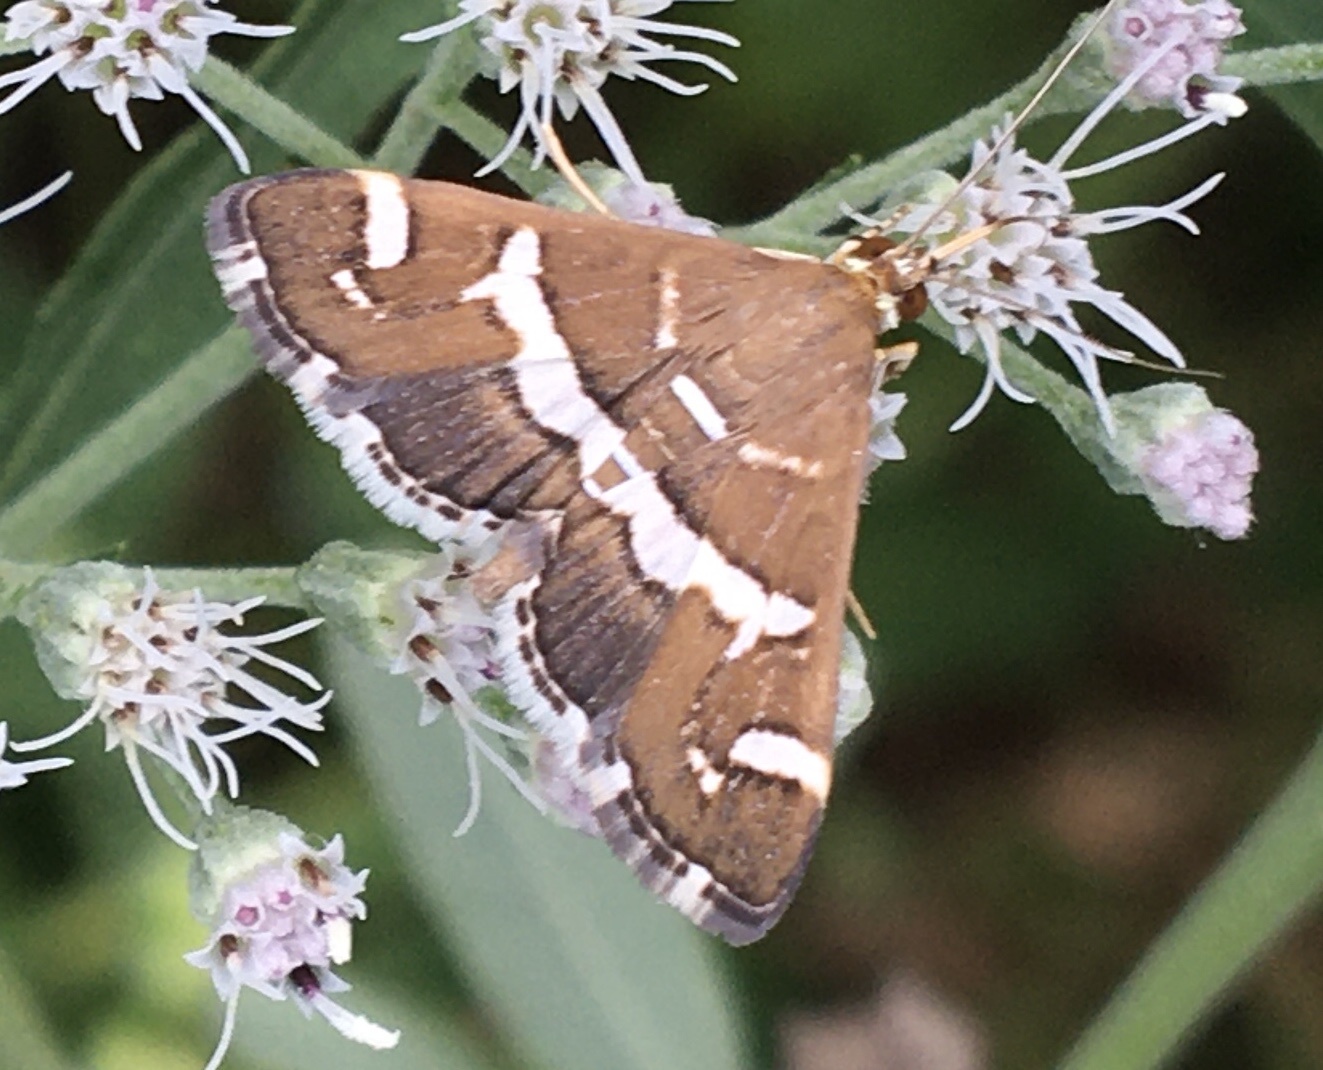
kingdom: Animalia
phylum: Arthropoda
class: Insecta
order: Lepidoptera
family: Crambidae
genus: Spoladea
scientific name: Spoladea recurvalis
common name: Beet webworm moth
